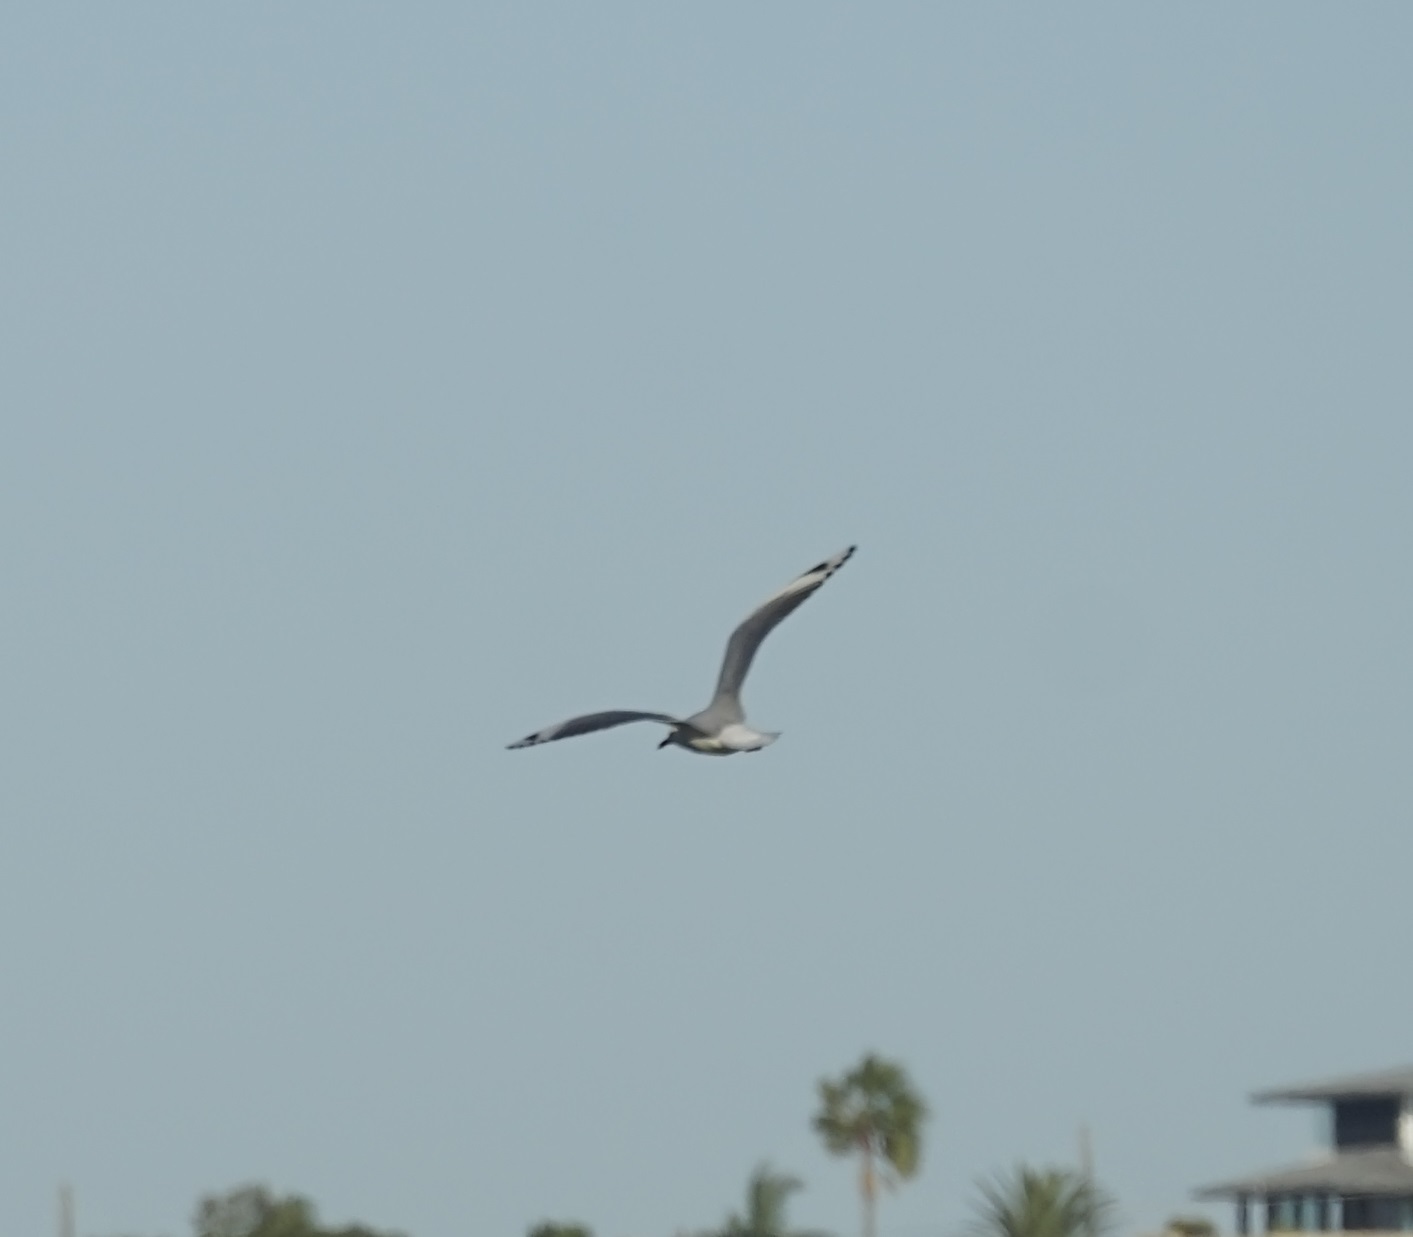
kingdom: Animalia
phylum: Chordata
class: Aves
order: Charadriiformes
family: Laridae
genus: Chroicocephalus
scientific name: Chroicocephalus novaehollandiae
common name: Silver gull
